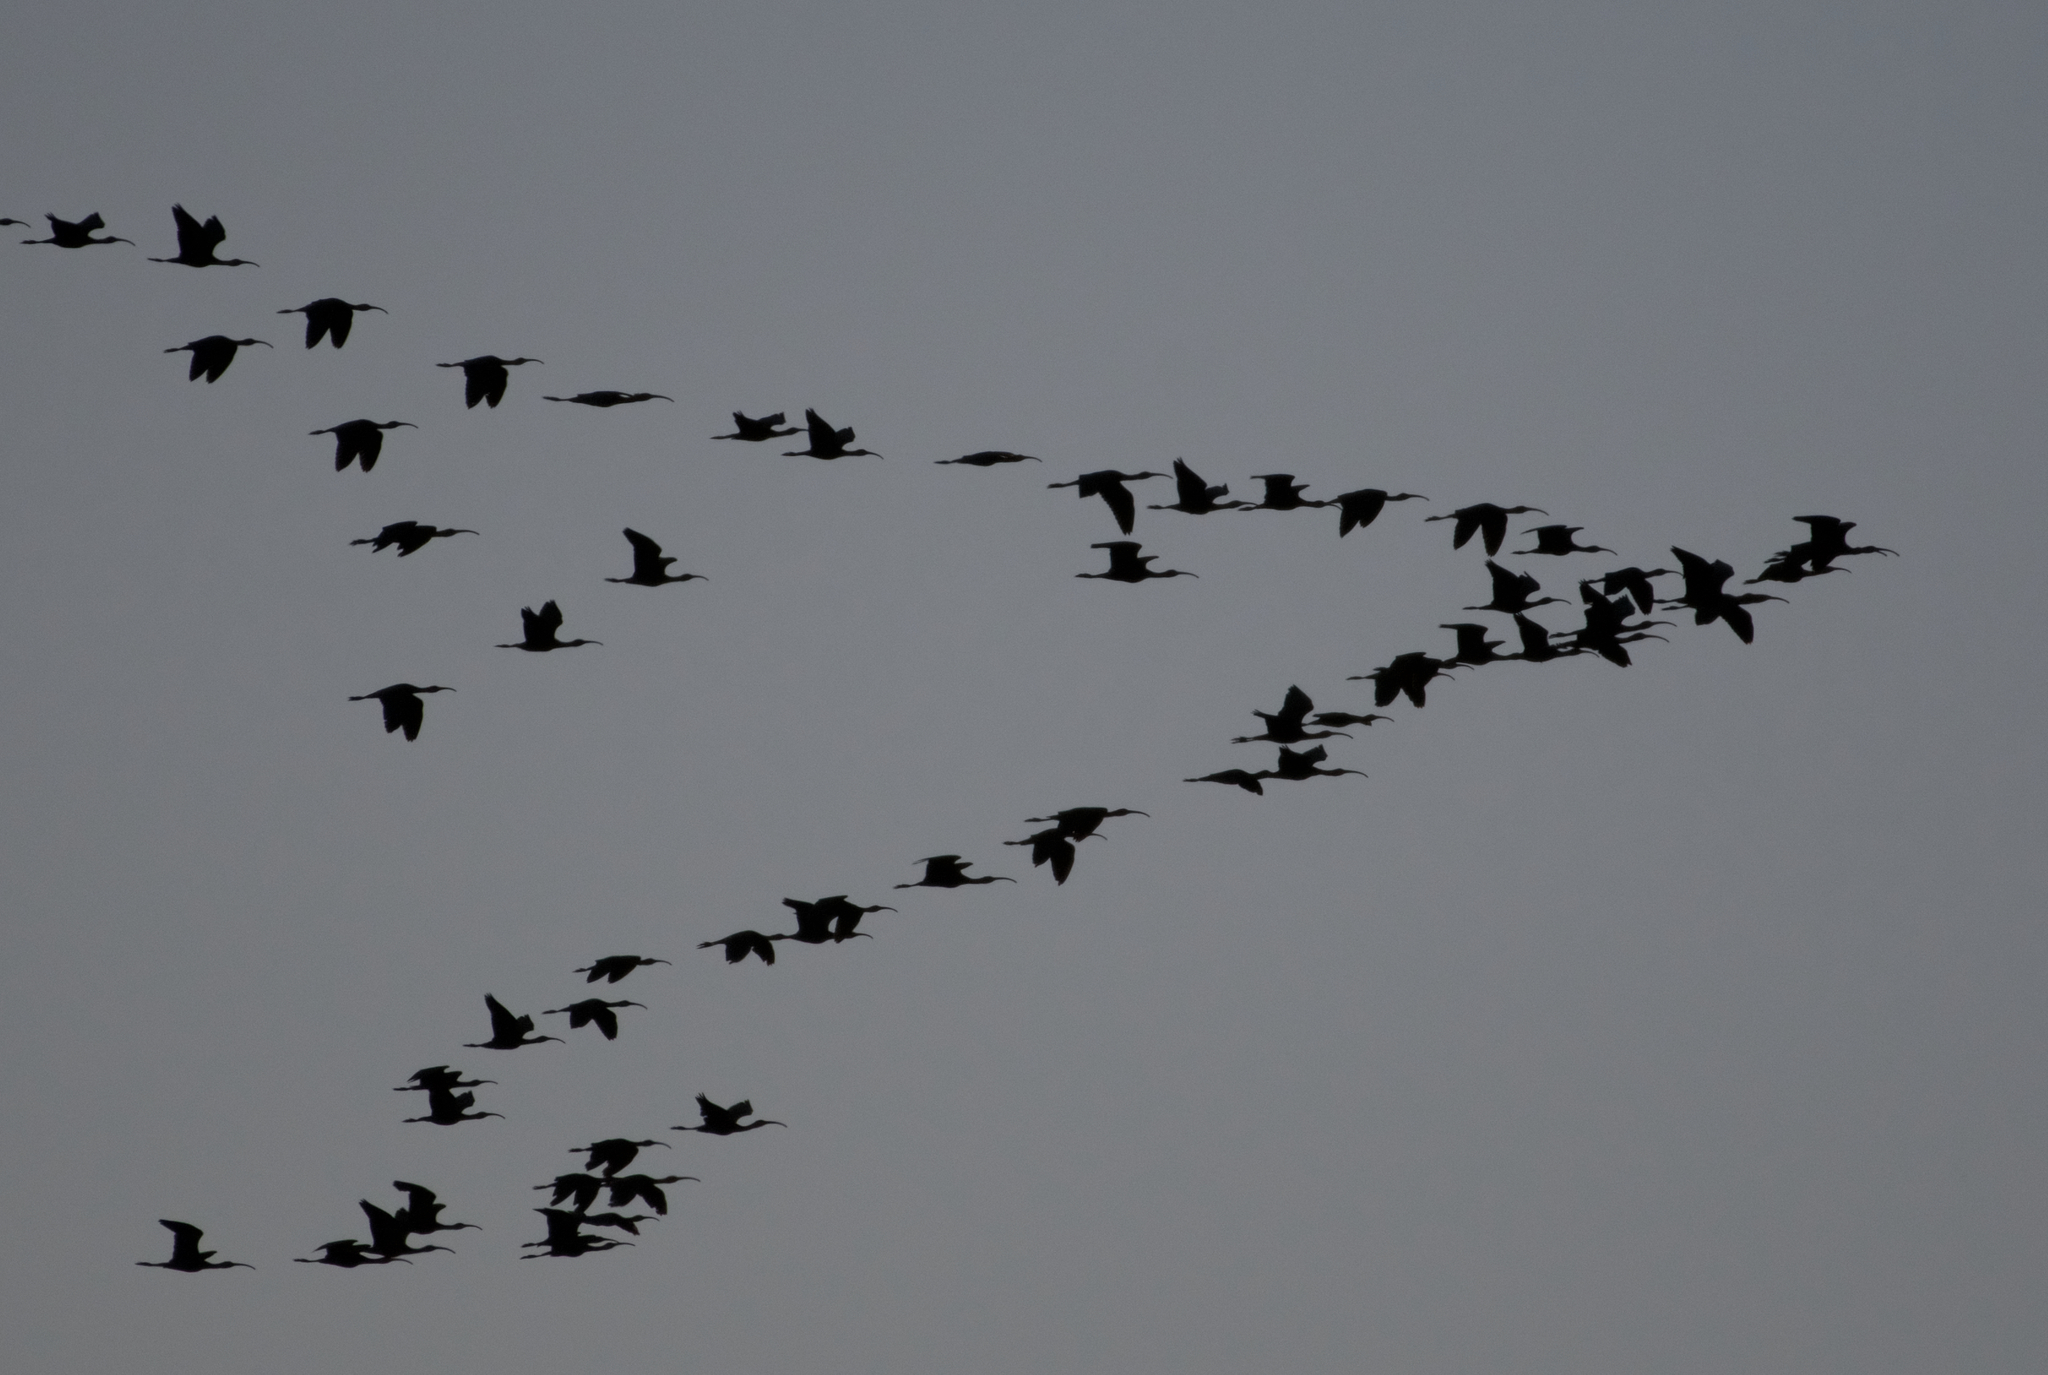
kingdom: Animalia
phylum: Chordata
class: Aves
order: Pelecaniformes
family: Threskiornithidae
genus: Plegadis
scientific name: Plegadis chihi
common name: White-faced ibis
